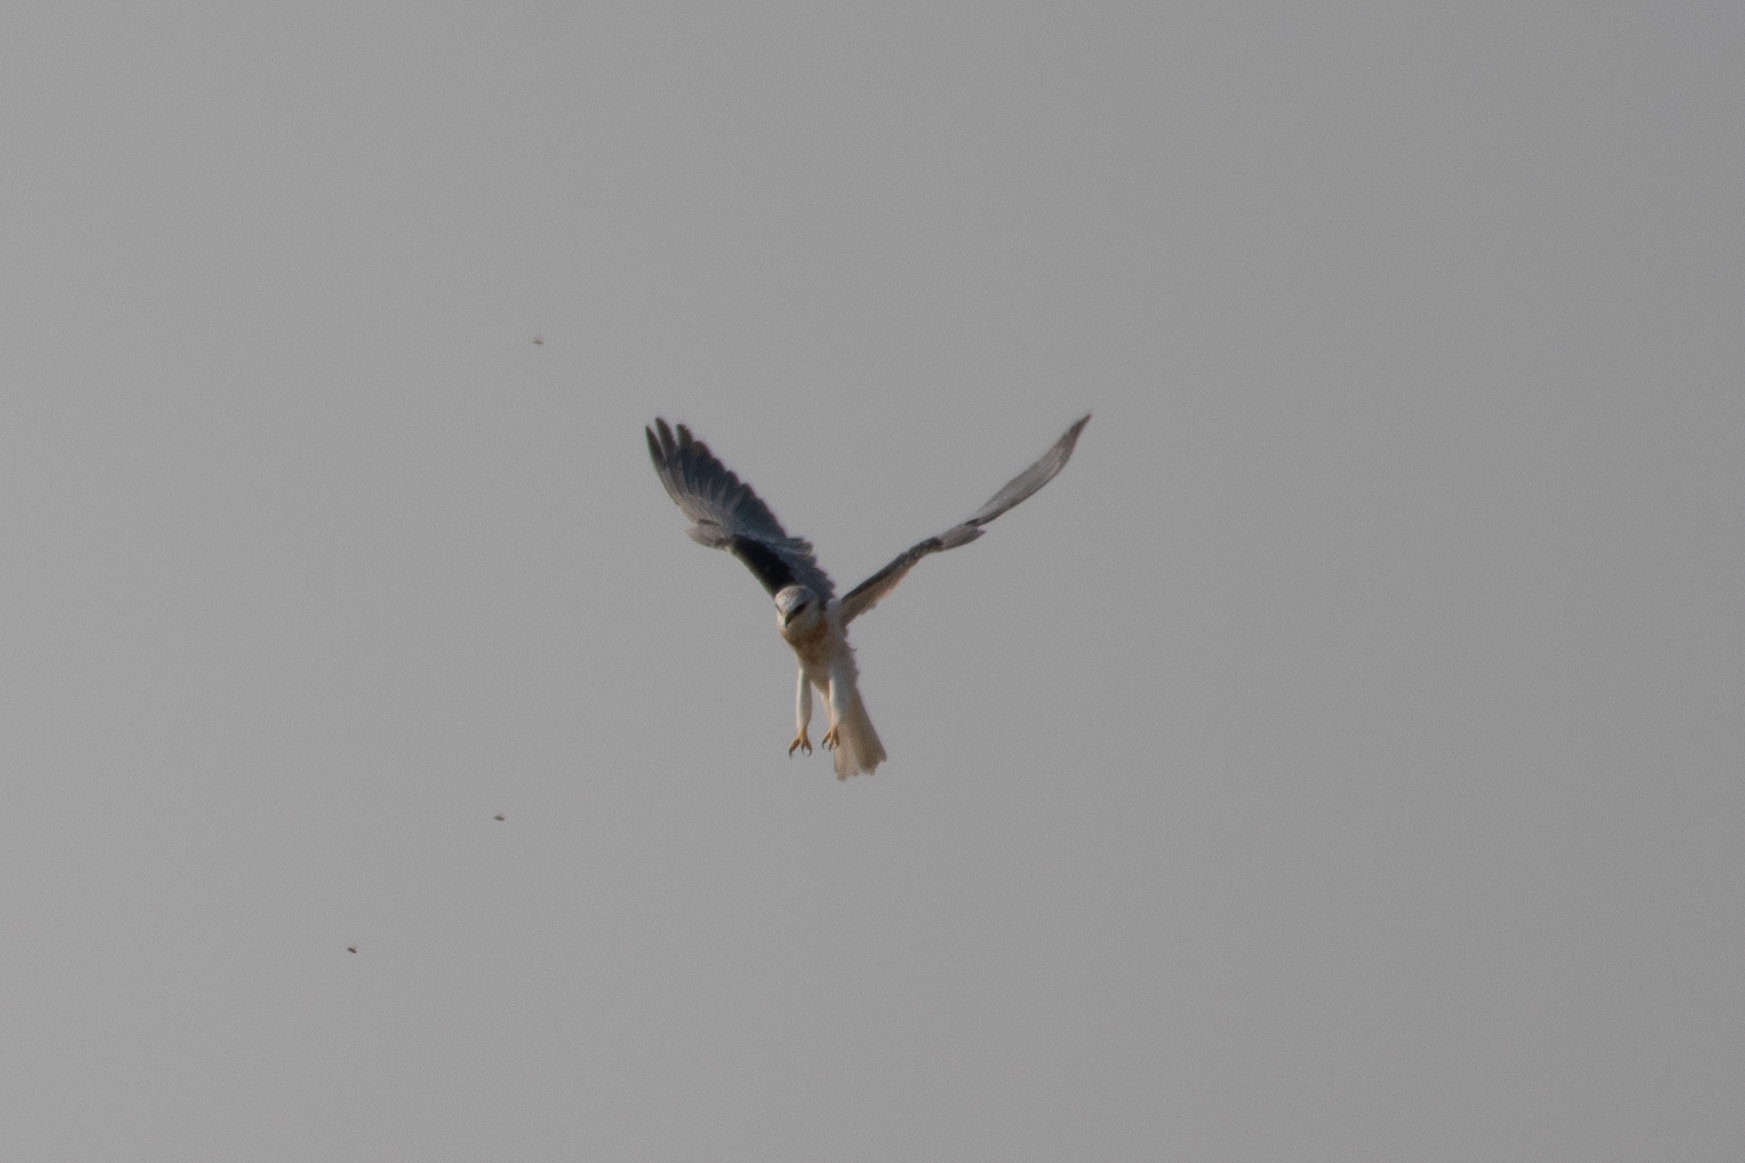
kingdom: Animalia
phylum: Chordata
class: Aves
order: Accipitriformes
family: Accipitridae
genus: Elanus
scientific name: Elanus leucurus
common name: White-tailed kite
